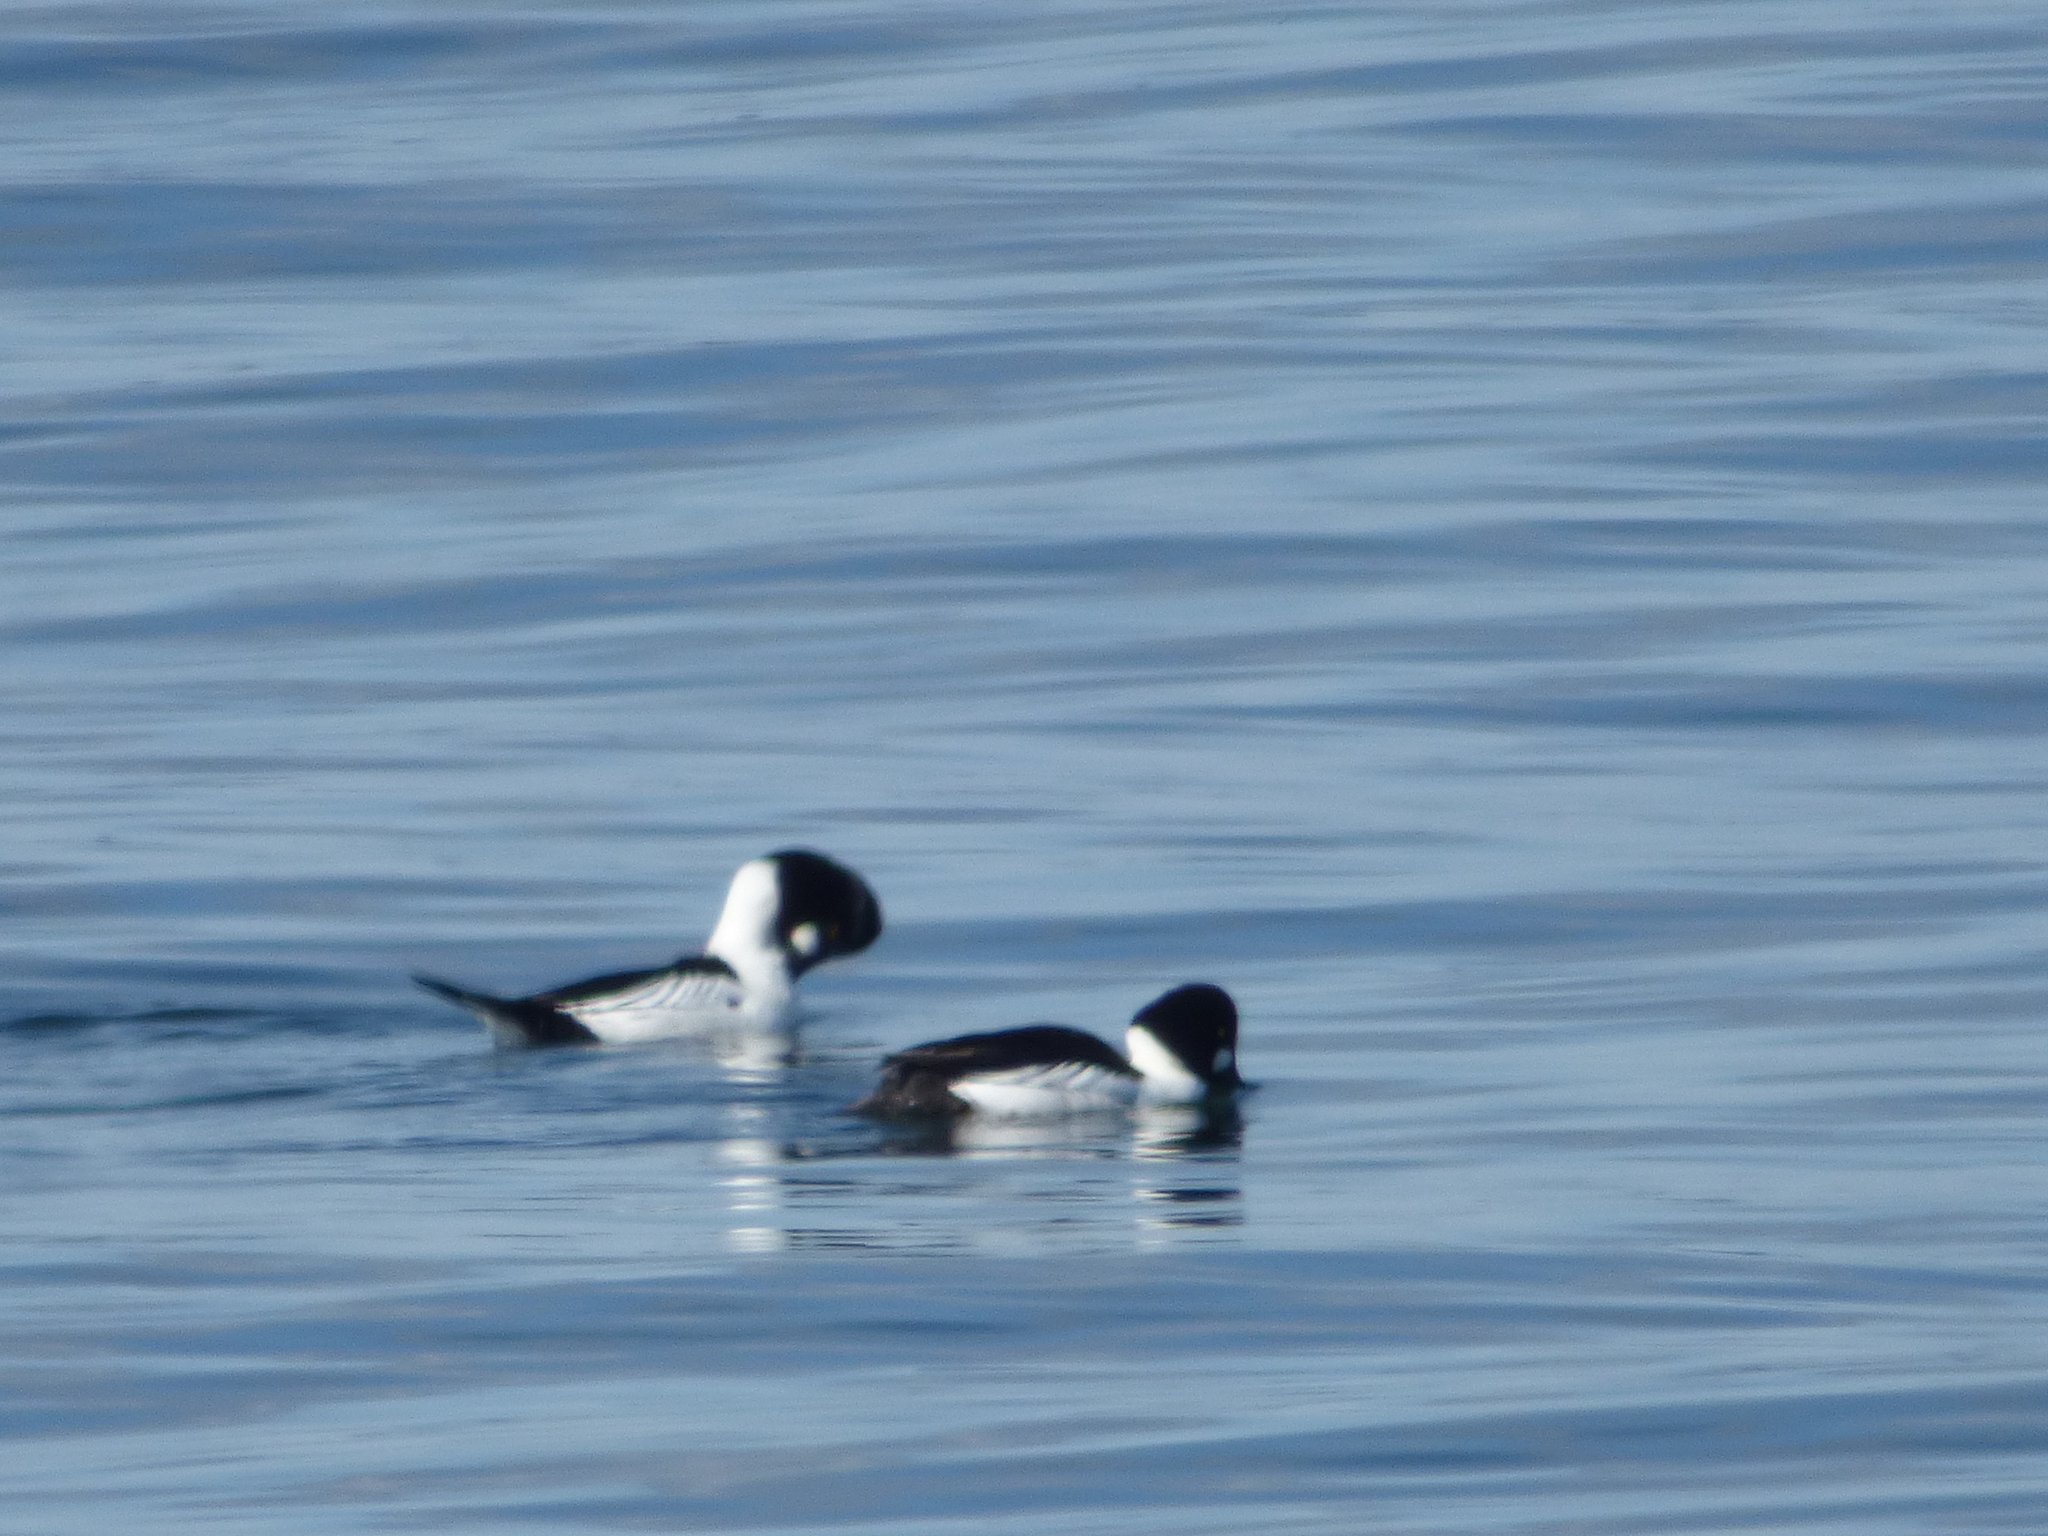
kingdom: Animalia
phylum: Chordata
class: Aves
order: Anseriformes
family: Anatidae
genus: Bucephala
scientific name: Bucephala clangula
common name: Common goldeneye
